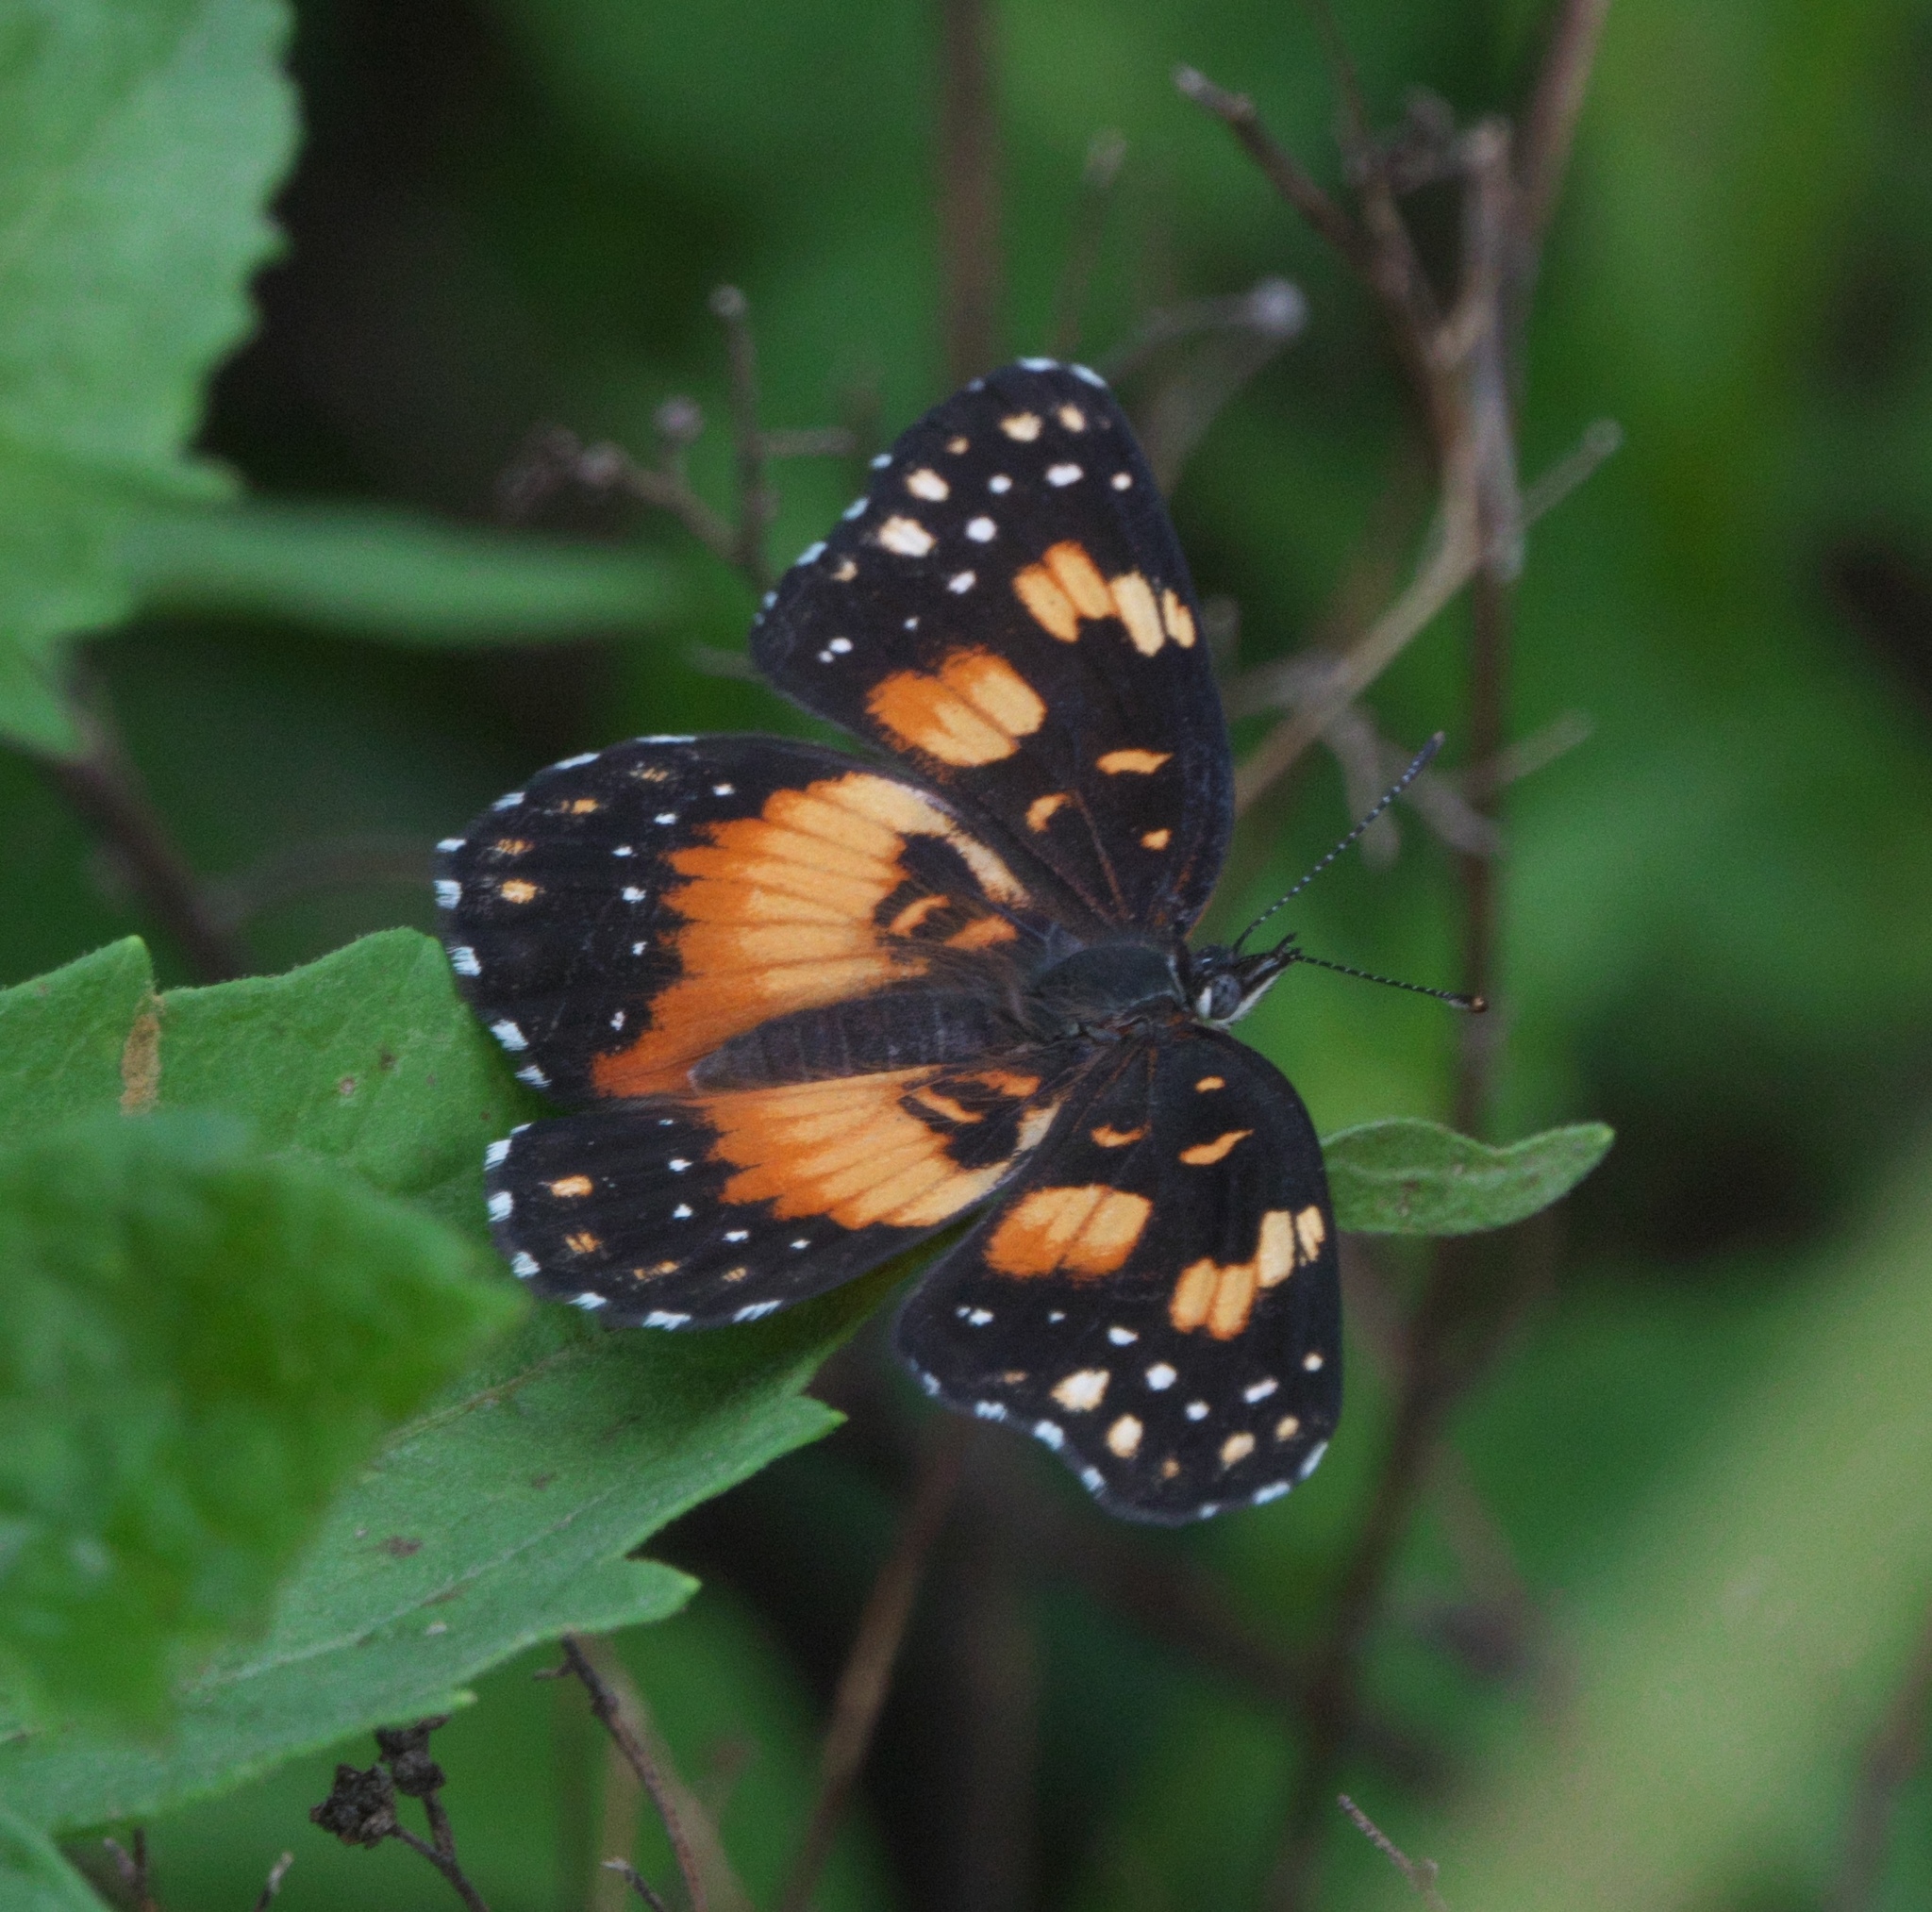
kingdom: Animalia
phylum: Arthropoda
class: Insecta
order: Lepidoptera
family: Nymphalidae
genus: Chlosyne
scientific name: Chlosyne lacinia
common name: Bordered patch
